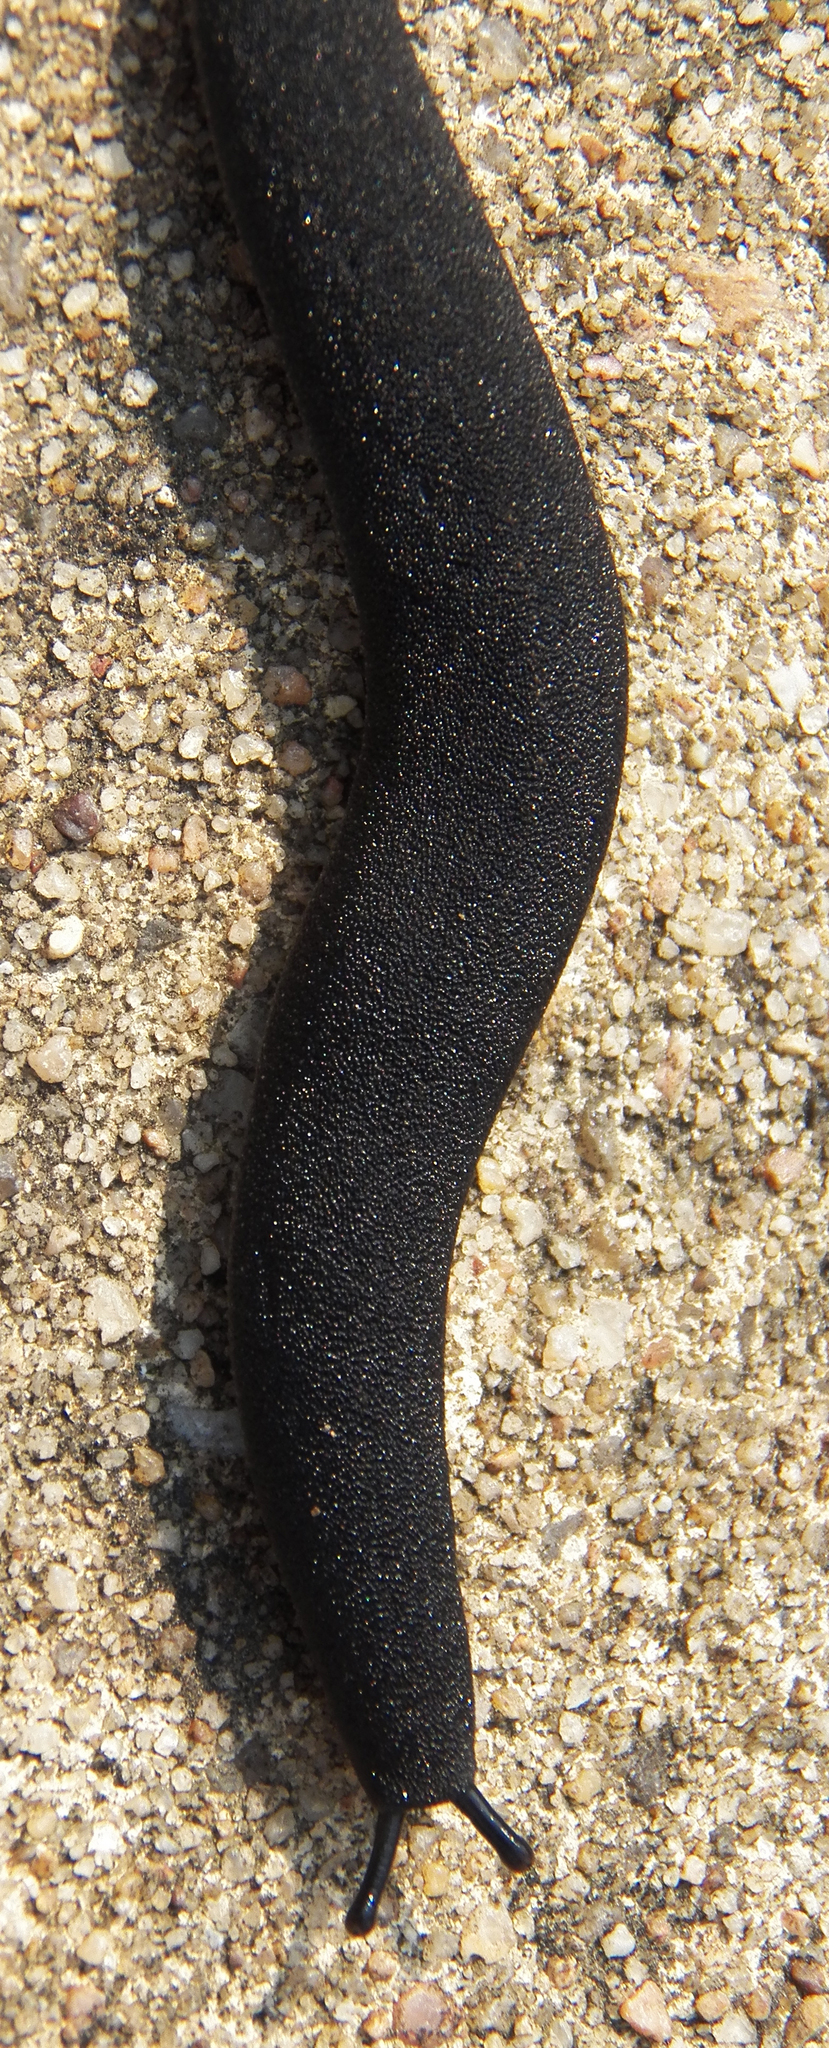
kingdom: Animalia
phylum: Mollusca
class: Gastropoda
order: Systellommatophora
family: Veronicellidae
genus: Belocaulus
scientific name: Belocaulus angustipes
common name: Black velvet leatherleaf slug
